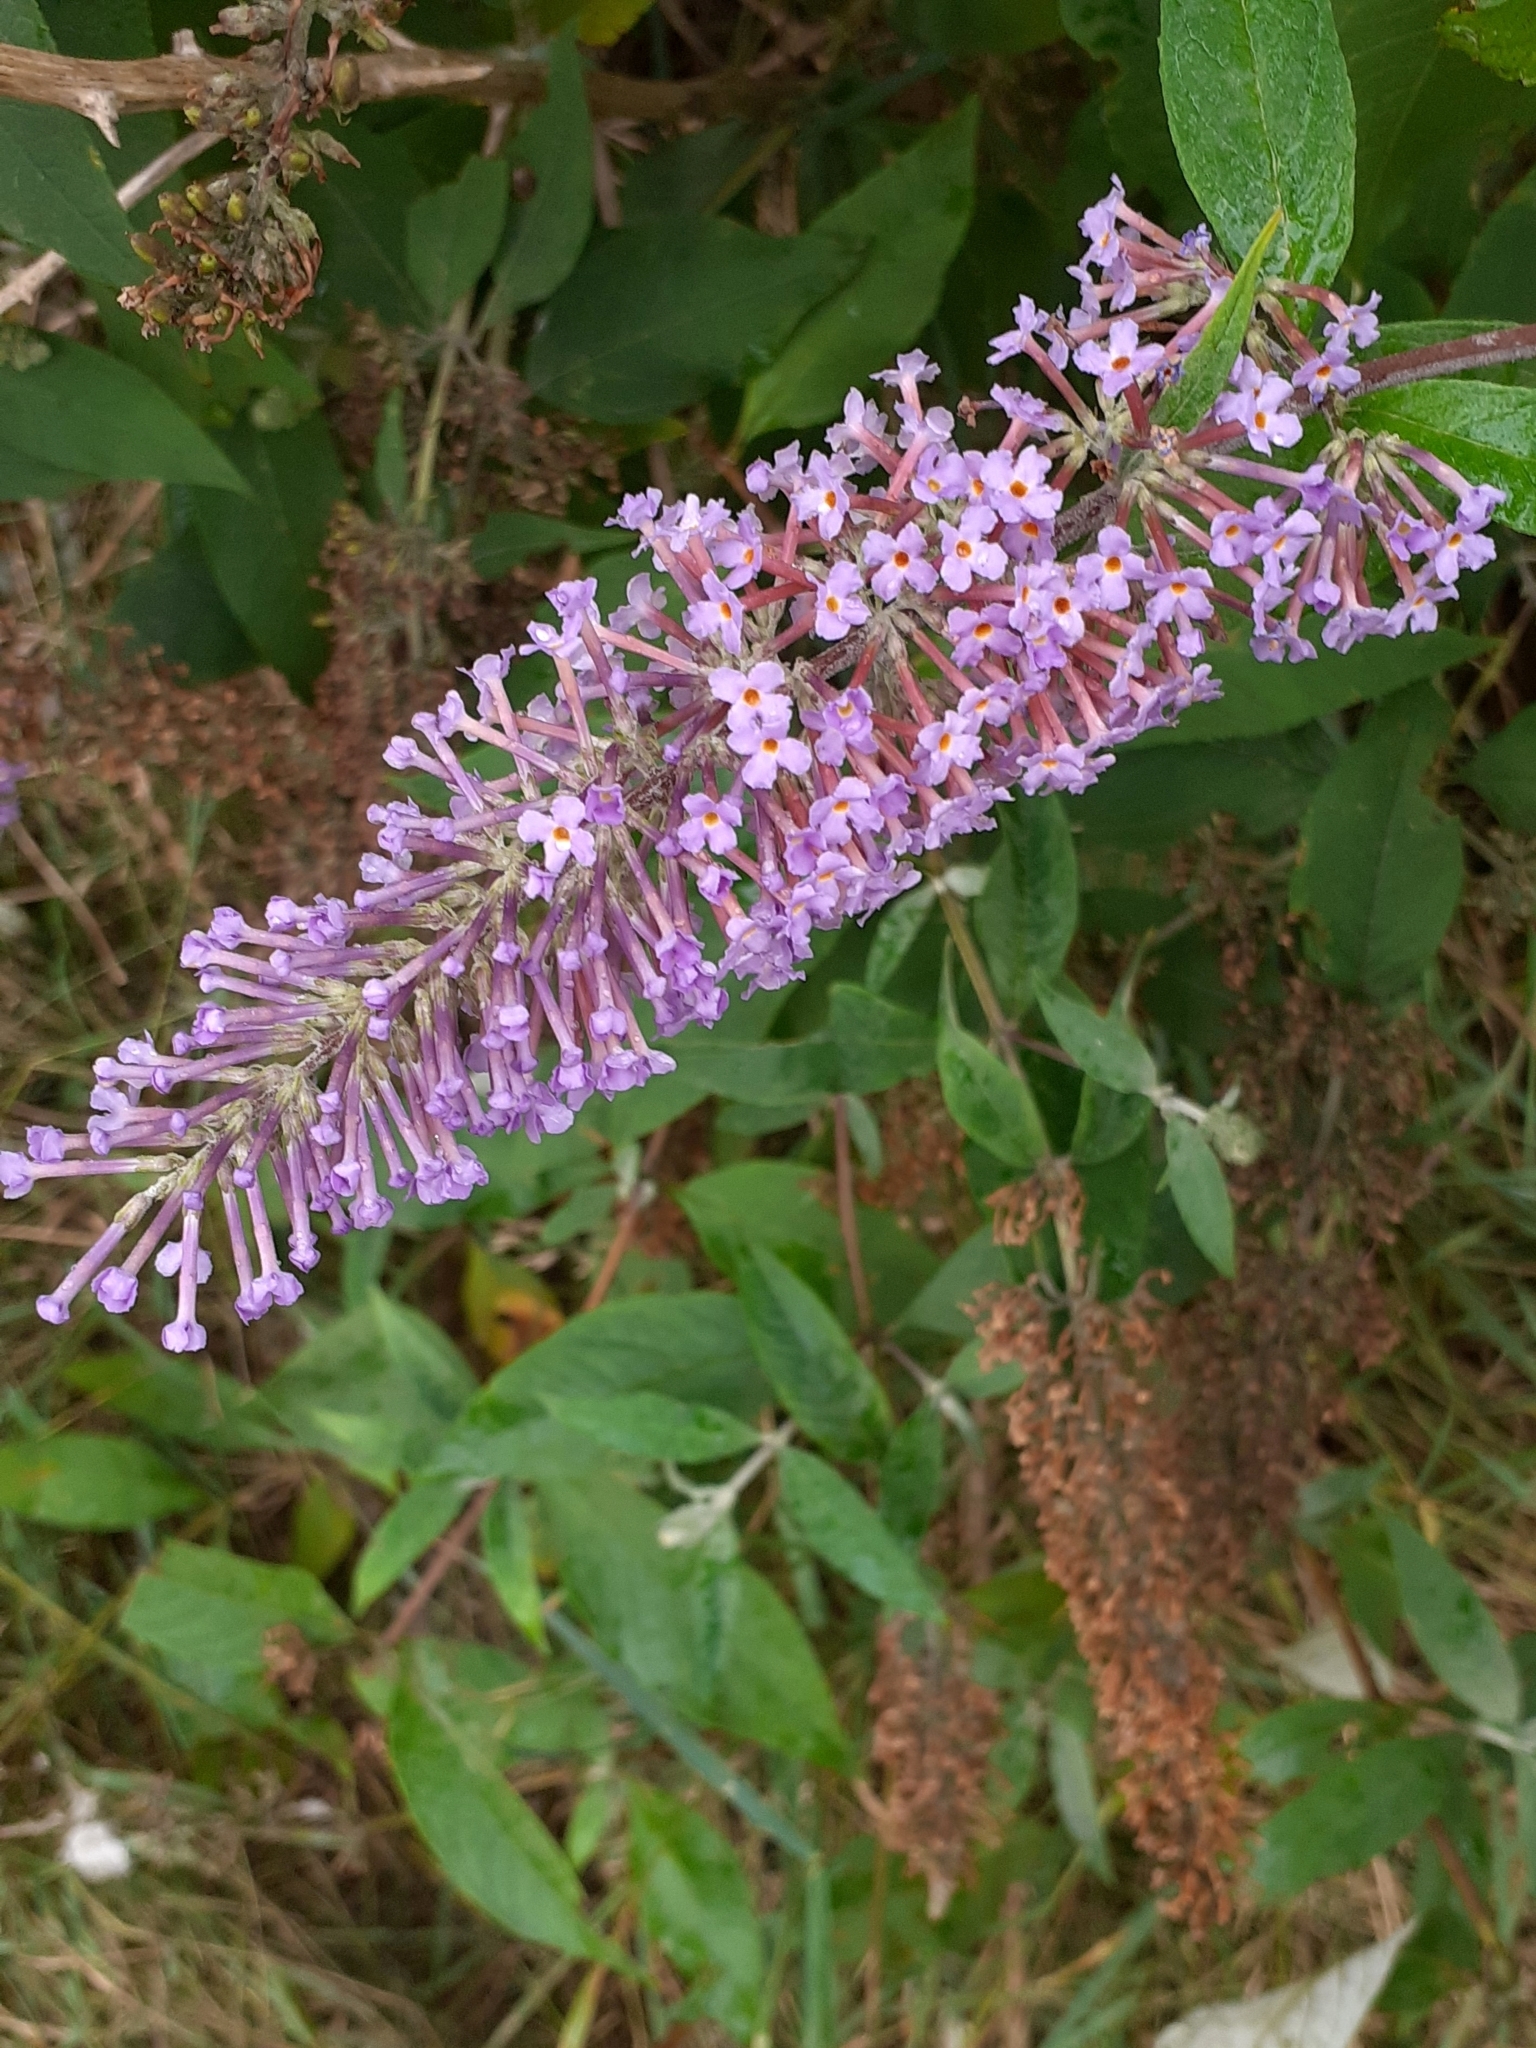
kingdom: Plantae
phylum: Tracheophyta
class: Magnoliopsida
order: Lamiales
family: Scrophulariaceae
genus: Buddleja
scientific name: Buddleja davidii
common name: Butterfly-bush
